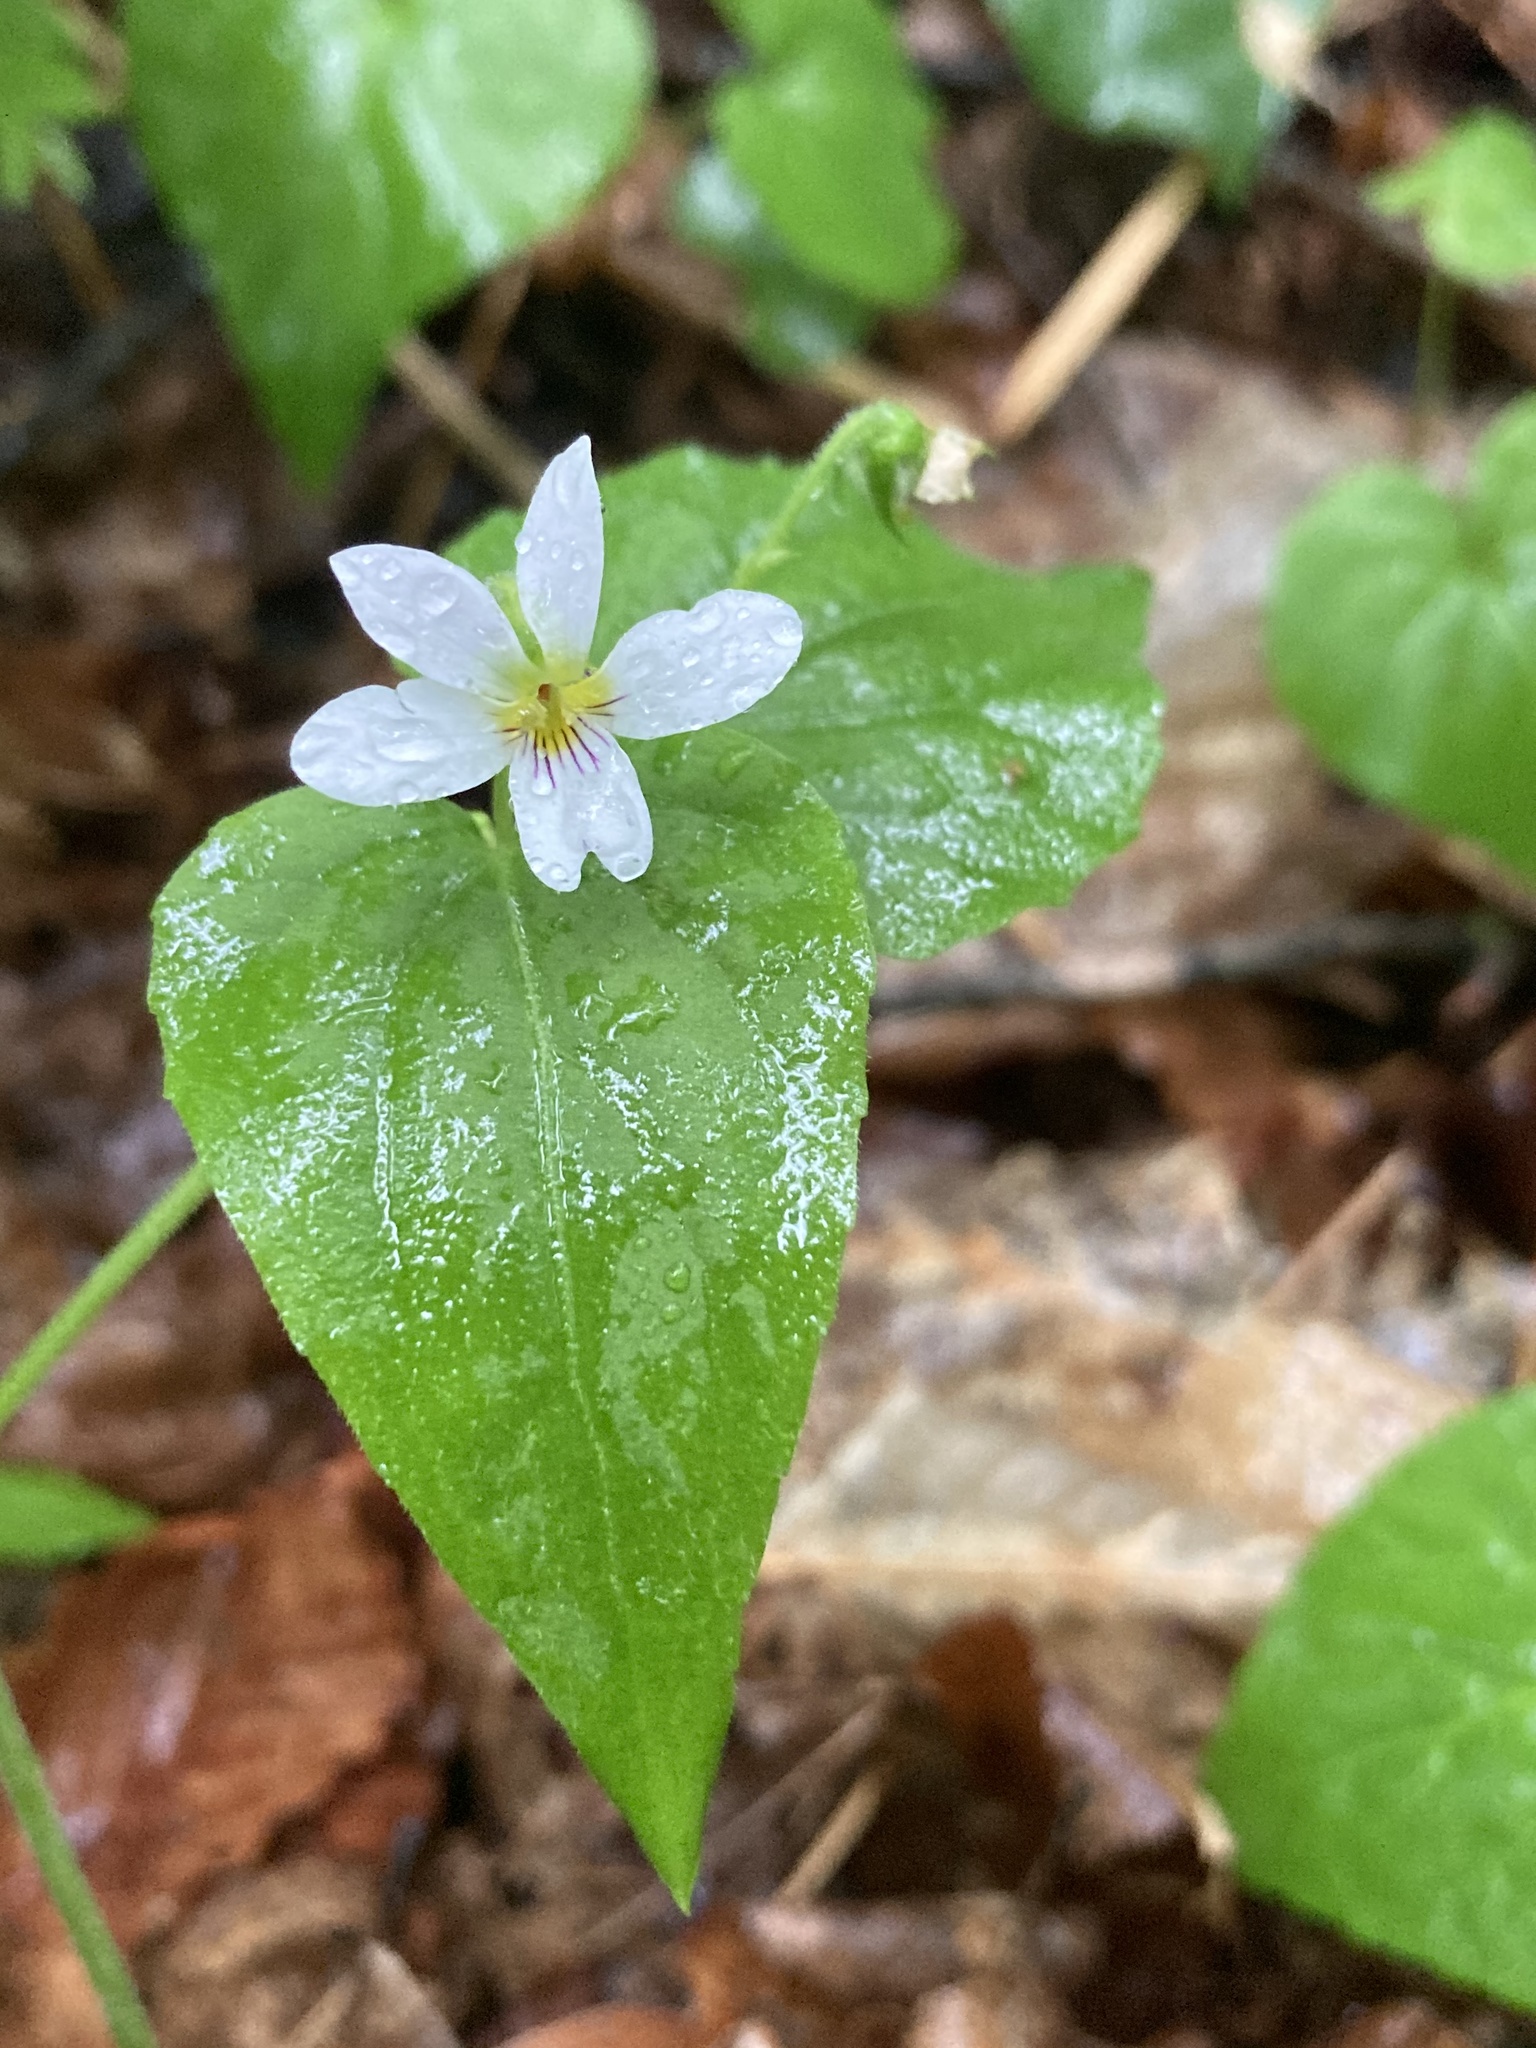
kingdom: Plantae
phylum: Tracheophyta
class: Magnoliopsida
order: Malpighiales
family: Violaceae
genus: Viola
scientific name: Viola canadensis
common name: Canada violet
